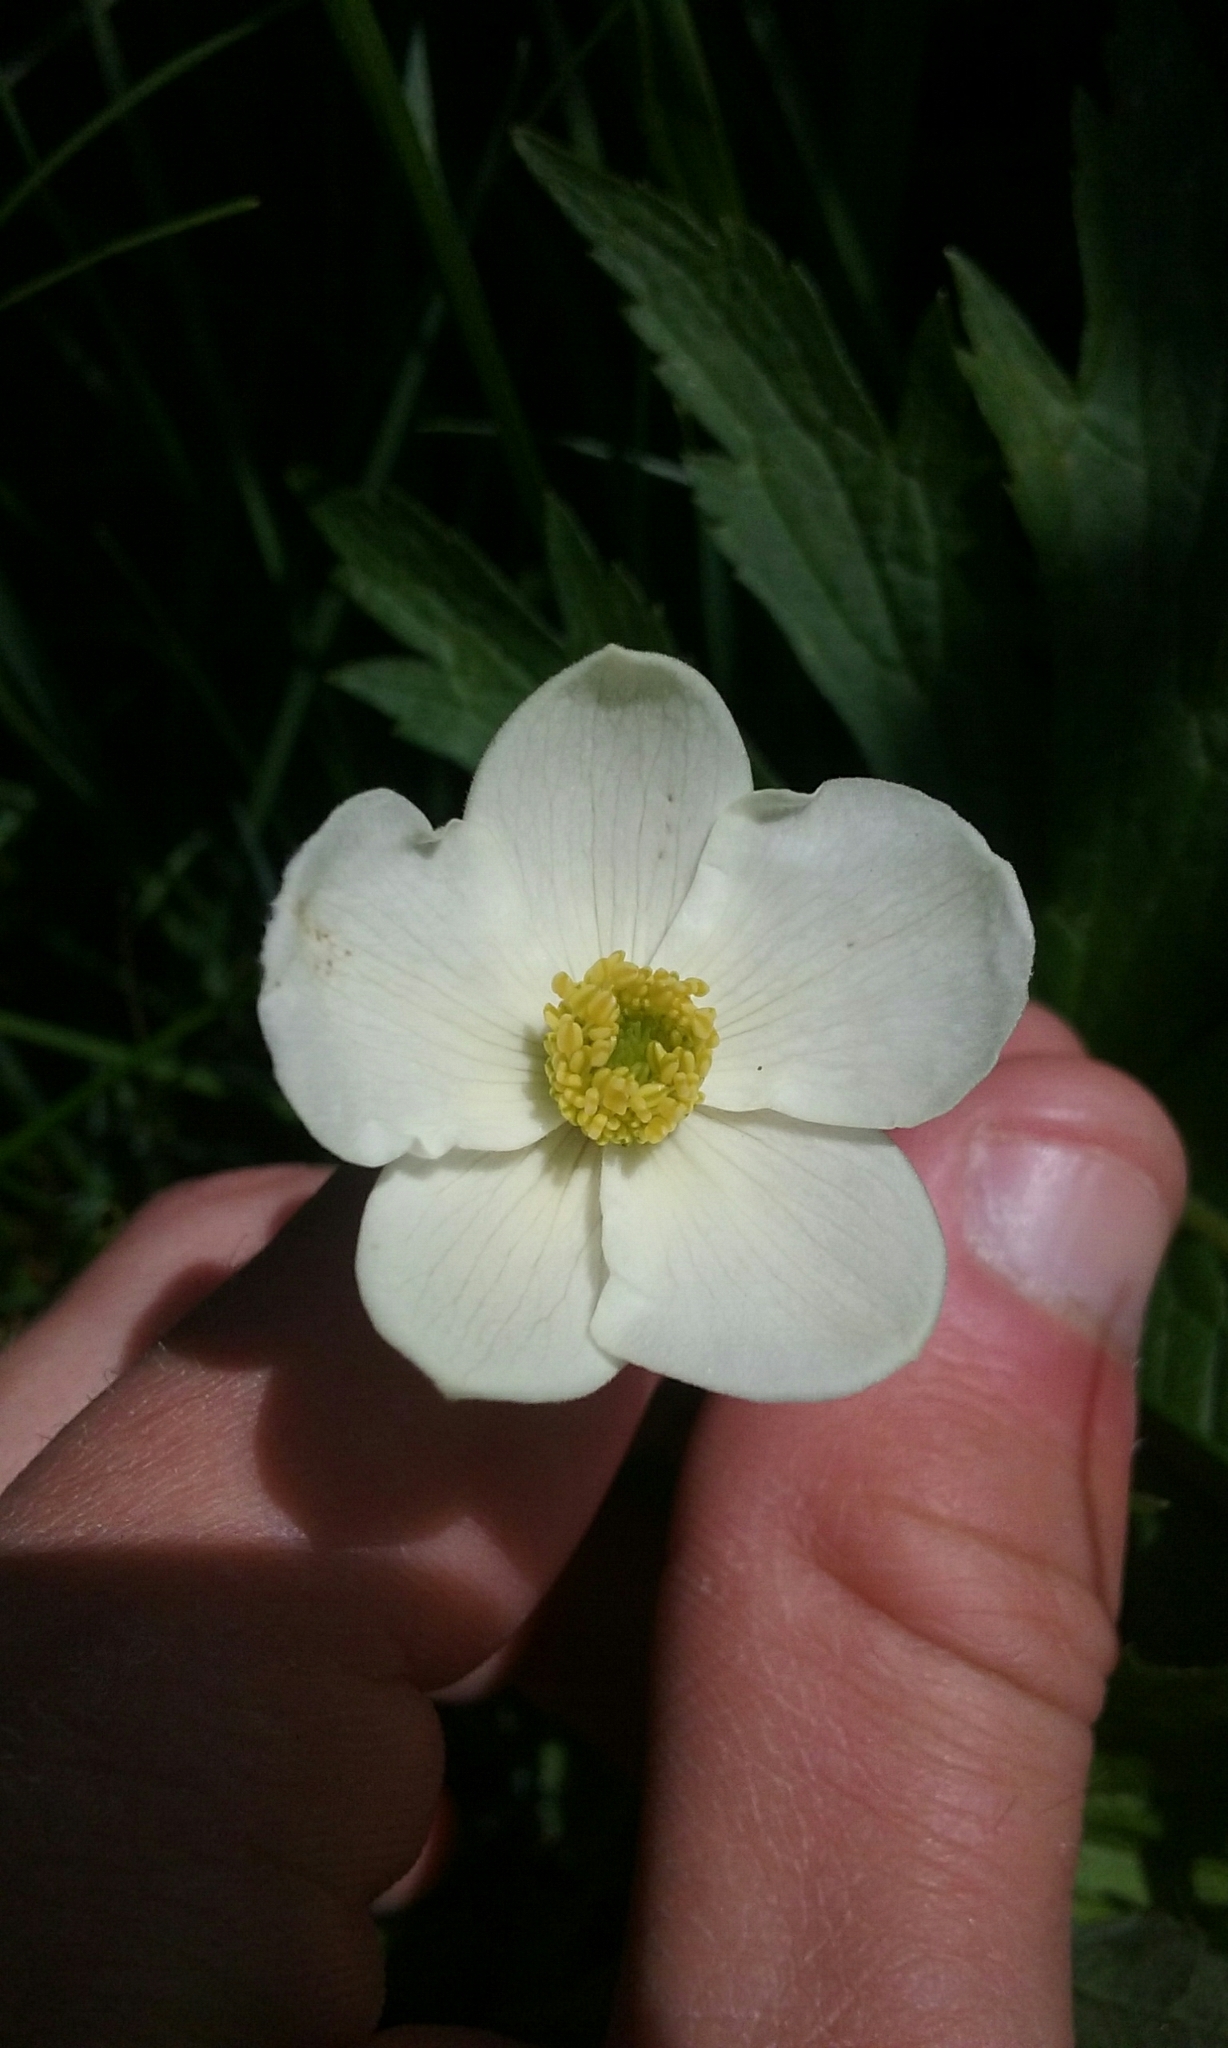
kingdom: Plantae
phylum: Tracheophyta
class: Magnoliopsida
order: Ranunculales
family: Ranunculaceae
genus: Anemonastrum
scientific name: Anemonastrum canadense
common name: Canada anemone
